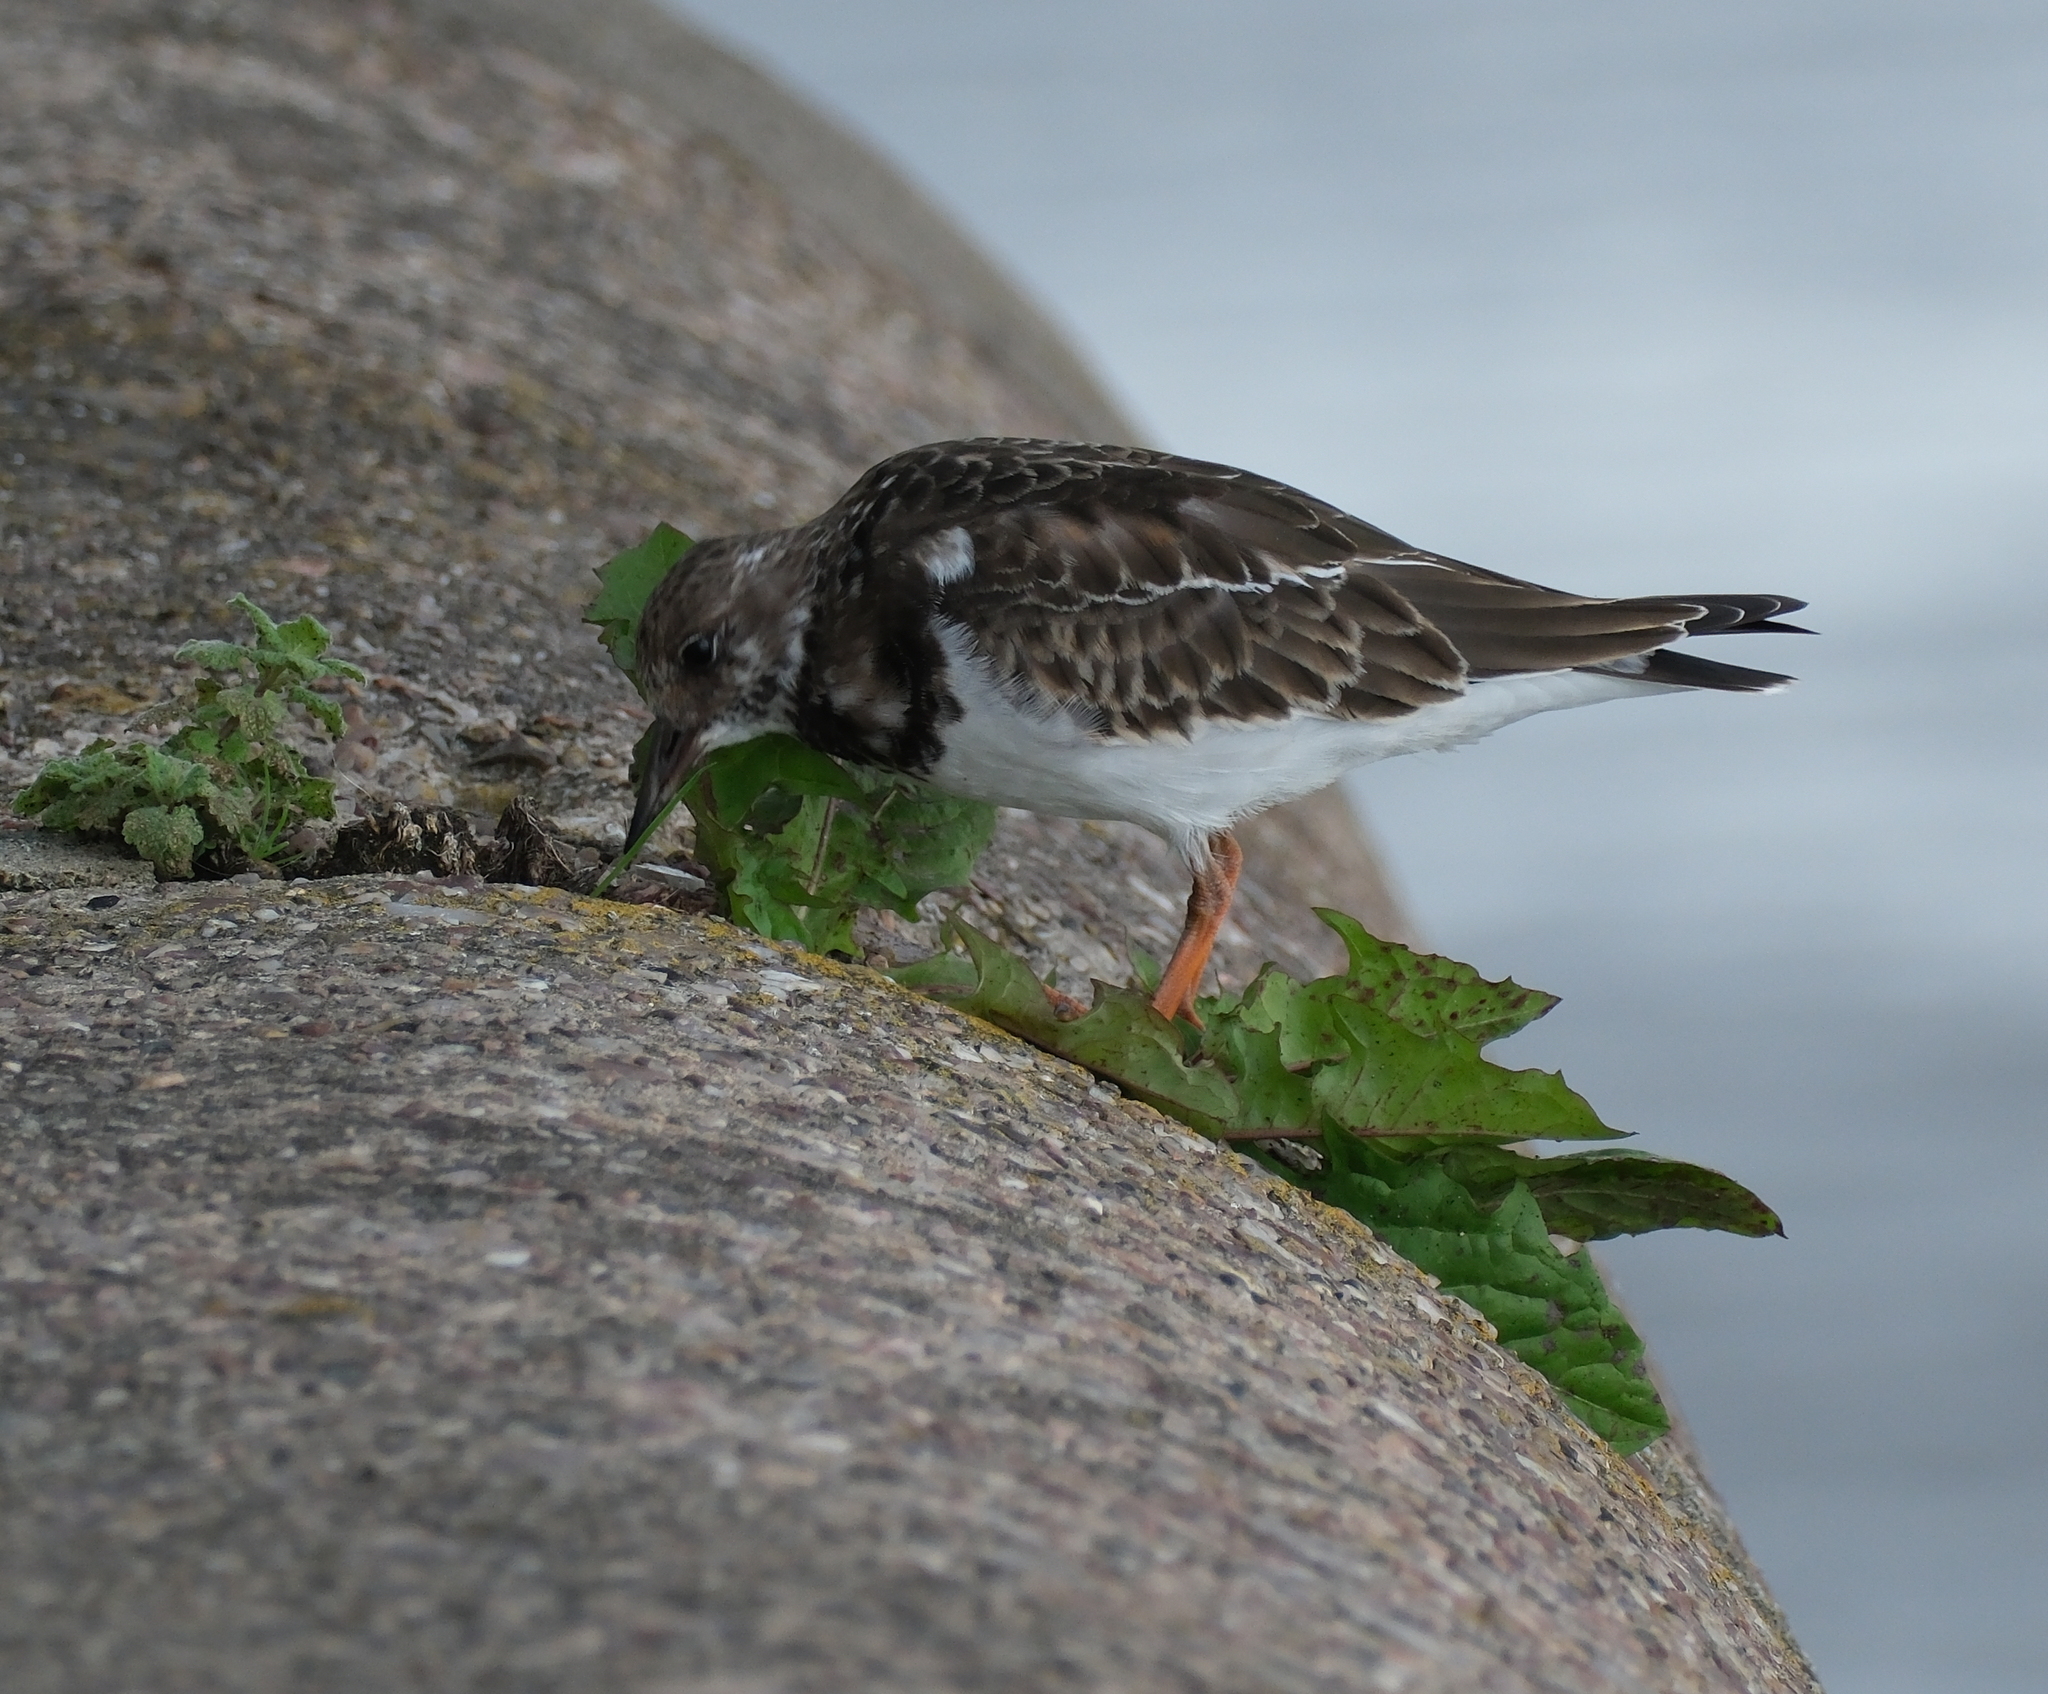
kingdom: Animalia
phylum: Chordata
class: Aves
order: Charadriiformes
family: Scolopacidae
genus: Arenaria
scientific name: Arenaria interpres
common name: Ruddy turnstone
